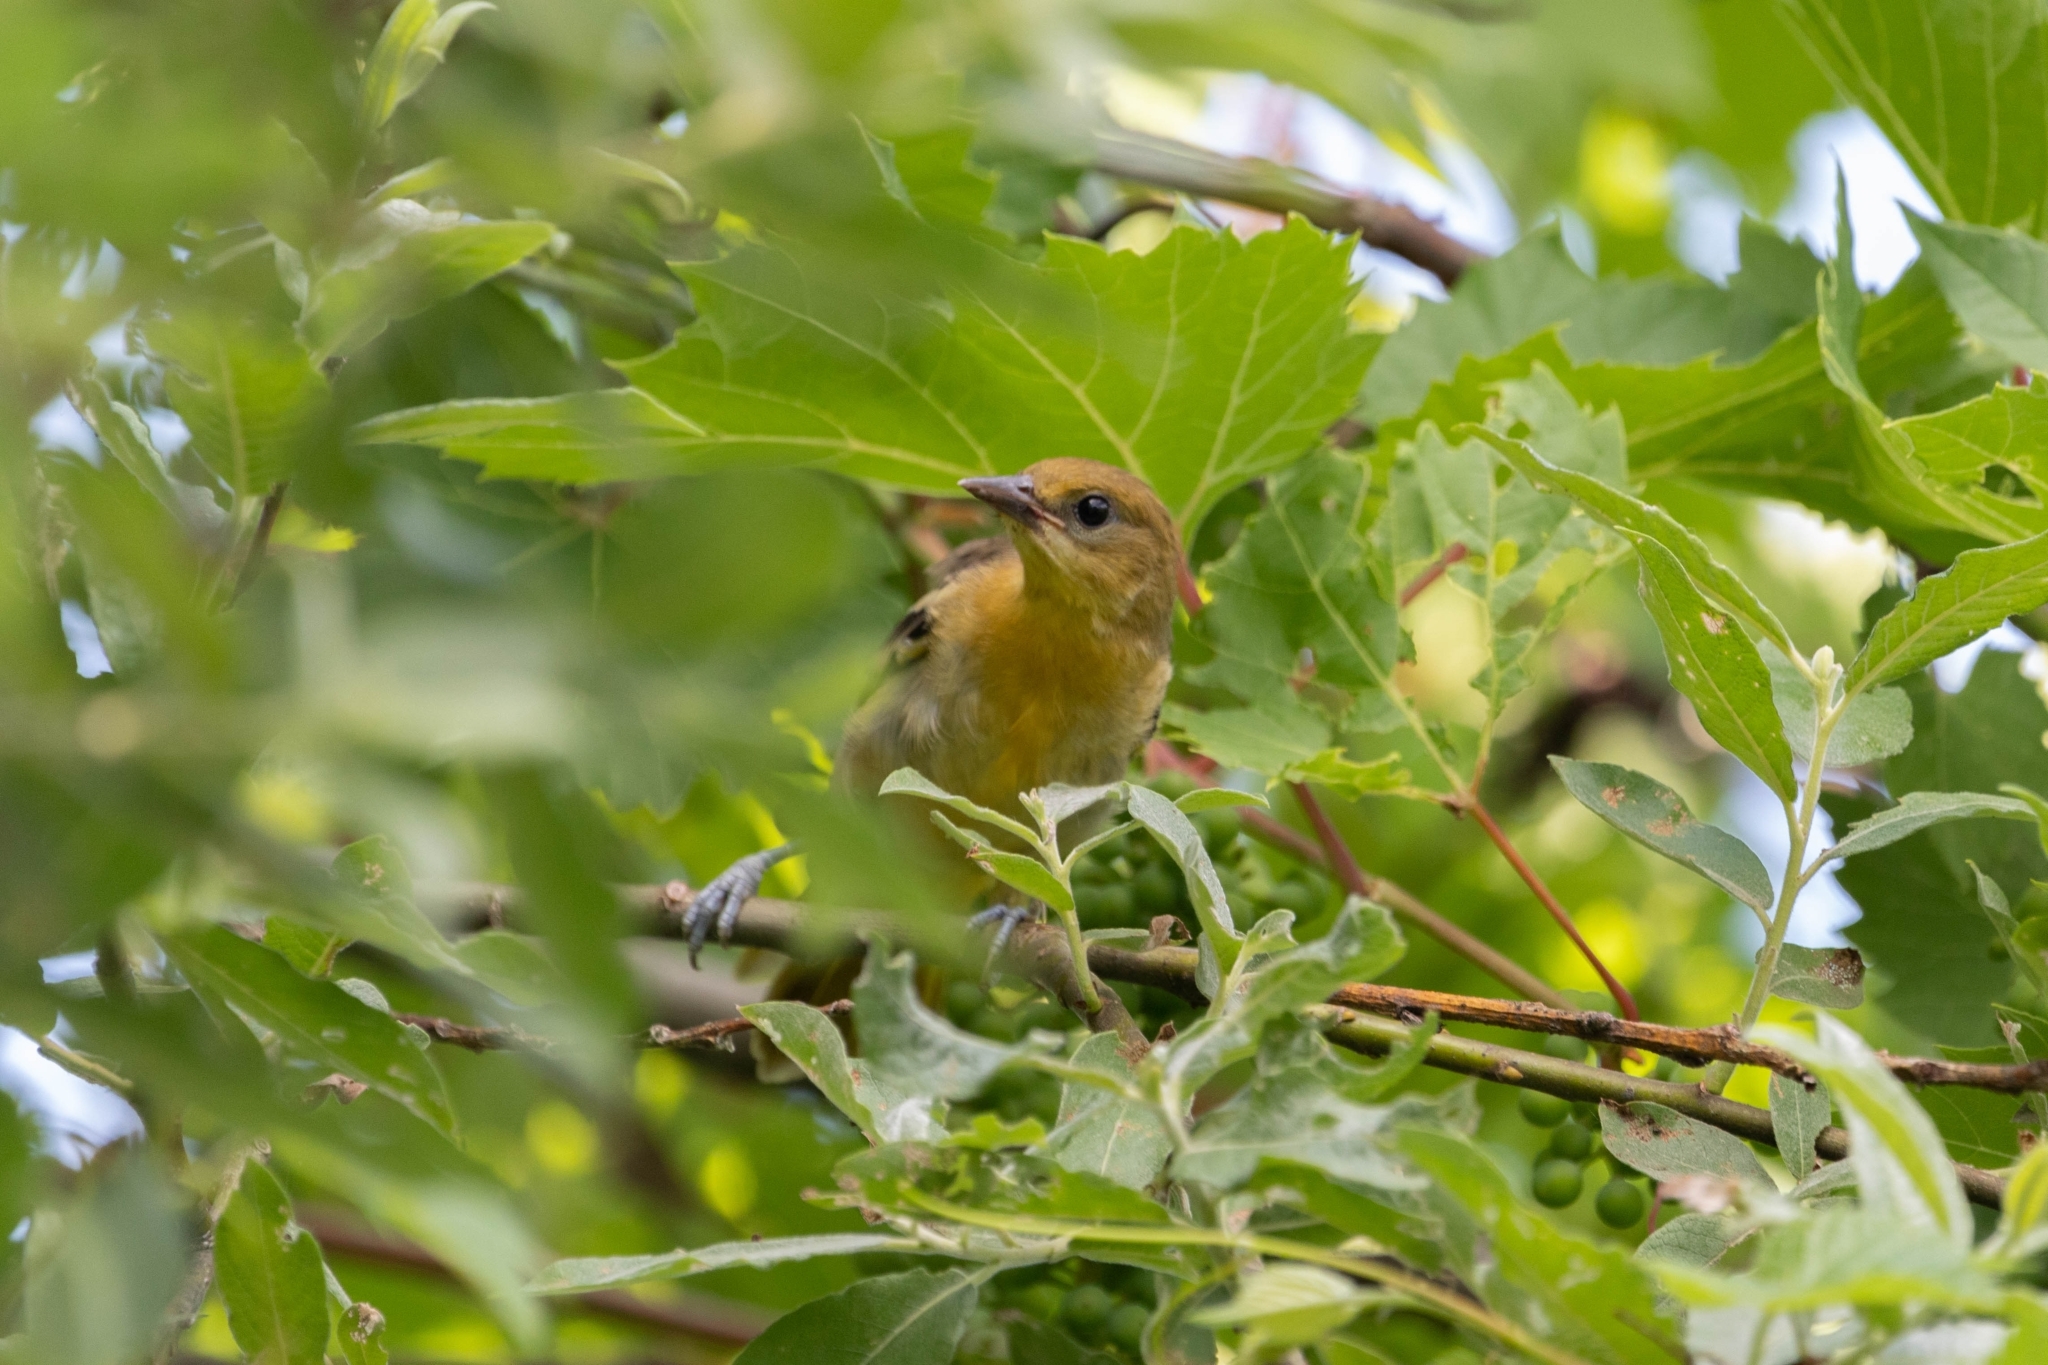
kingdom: Animalia
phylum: Chordata
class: Aves
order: Passeriformes
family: Icteridae
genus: Icterus
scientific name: Icterus galbula
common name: Baltimore oriole
